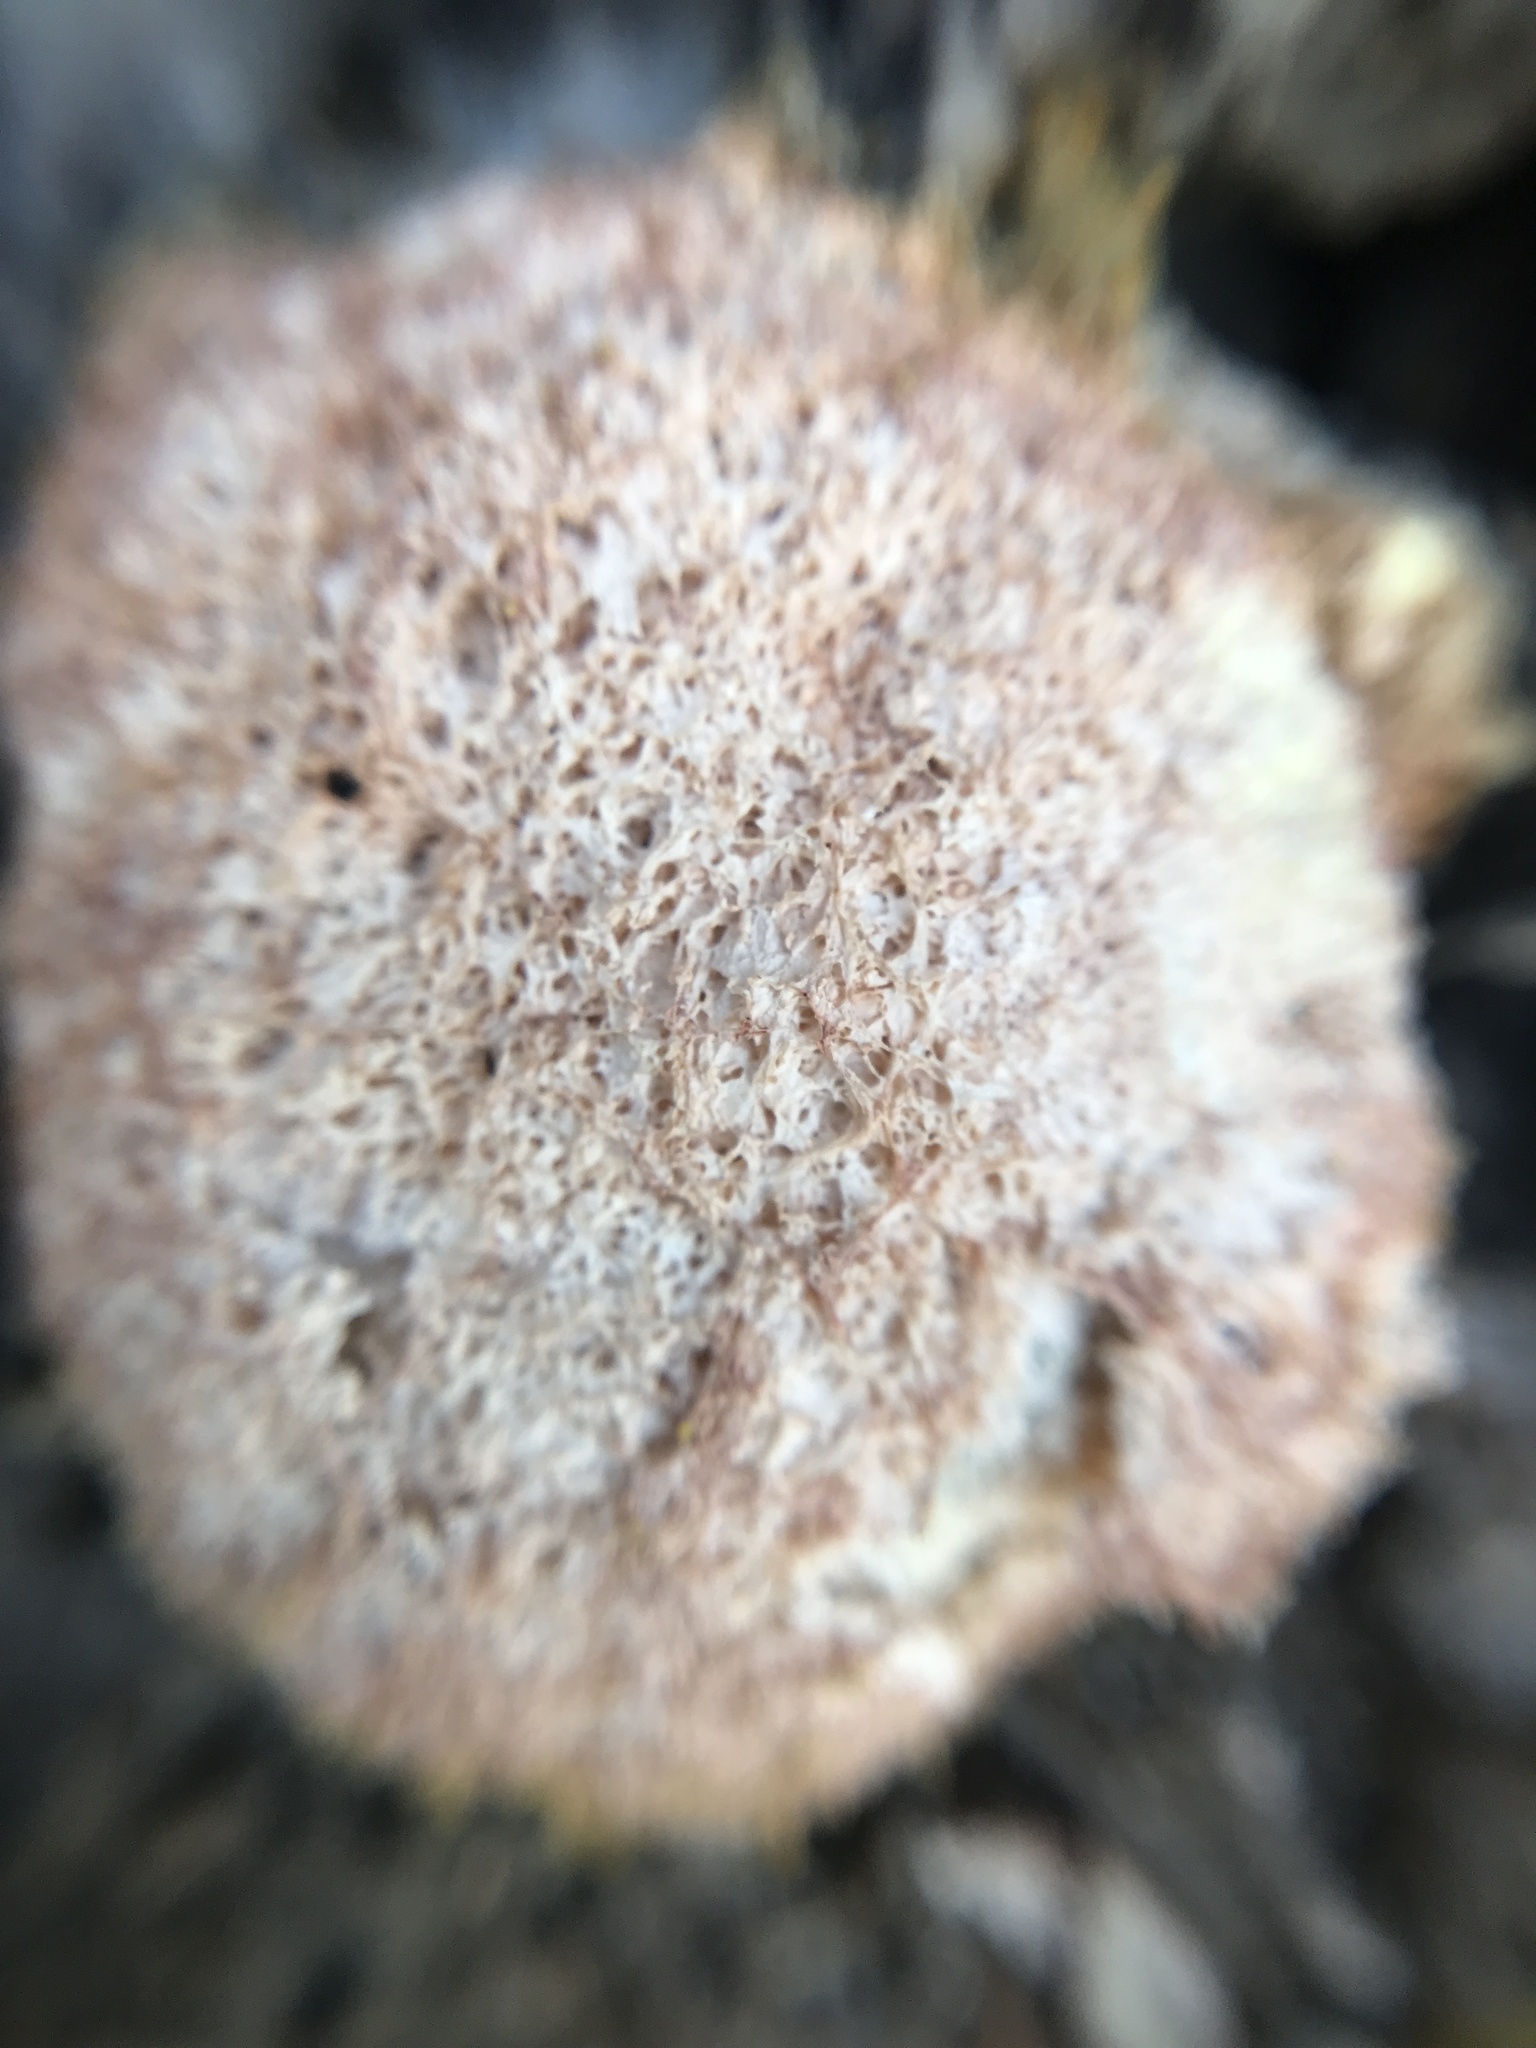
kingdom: Protozoa
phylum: Mycetozoa
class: Myxomycetes
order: Physarales
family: Physaraceae
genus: Fuligo
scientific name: Fuligo septica
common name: Dog vomit slime mold
